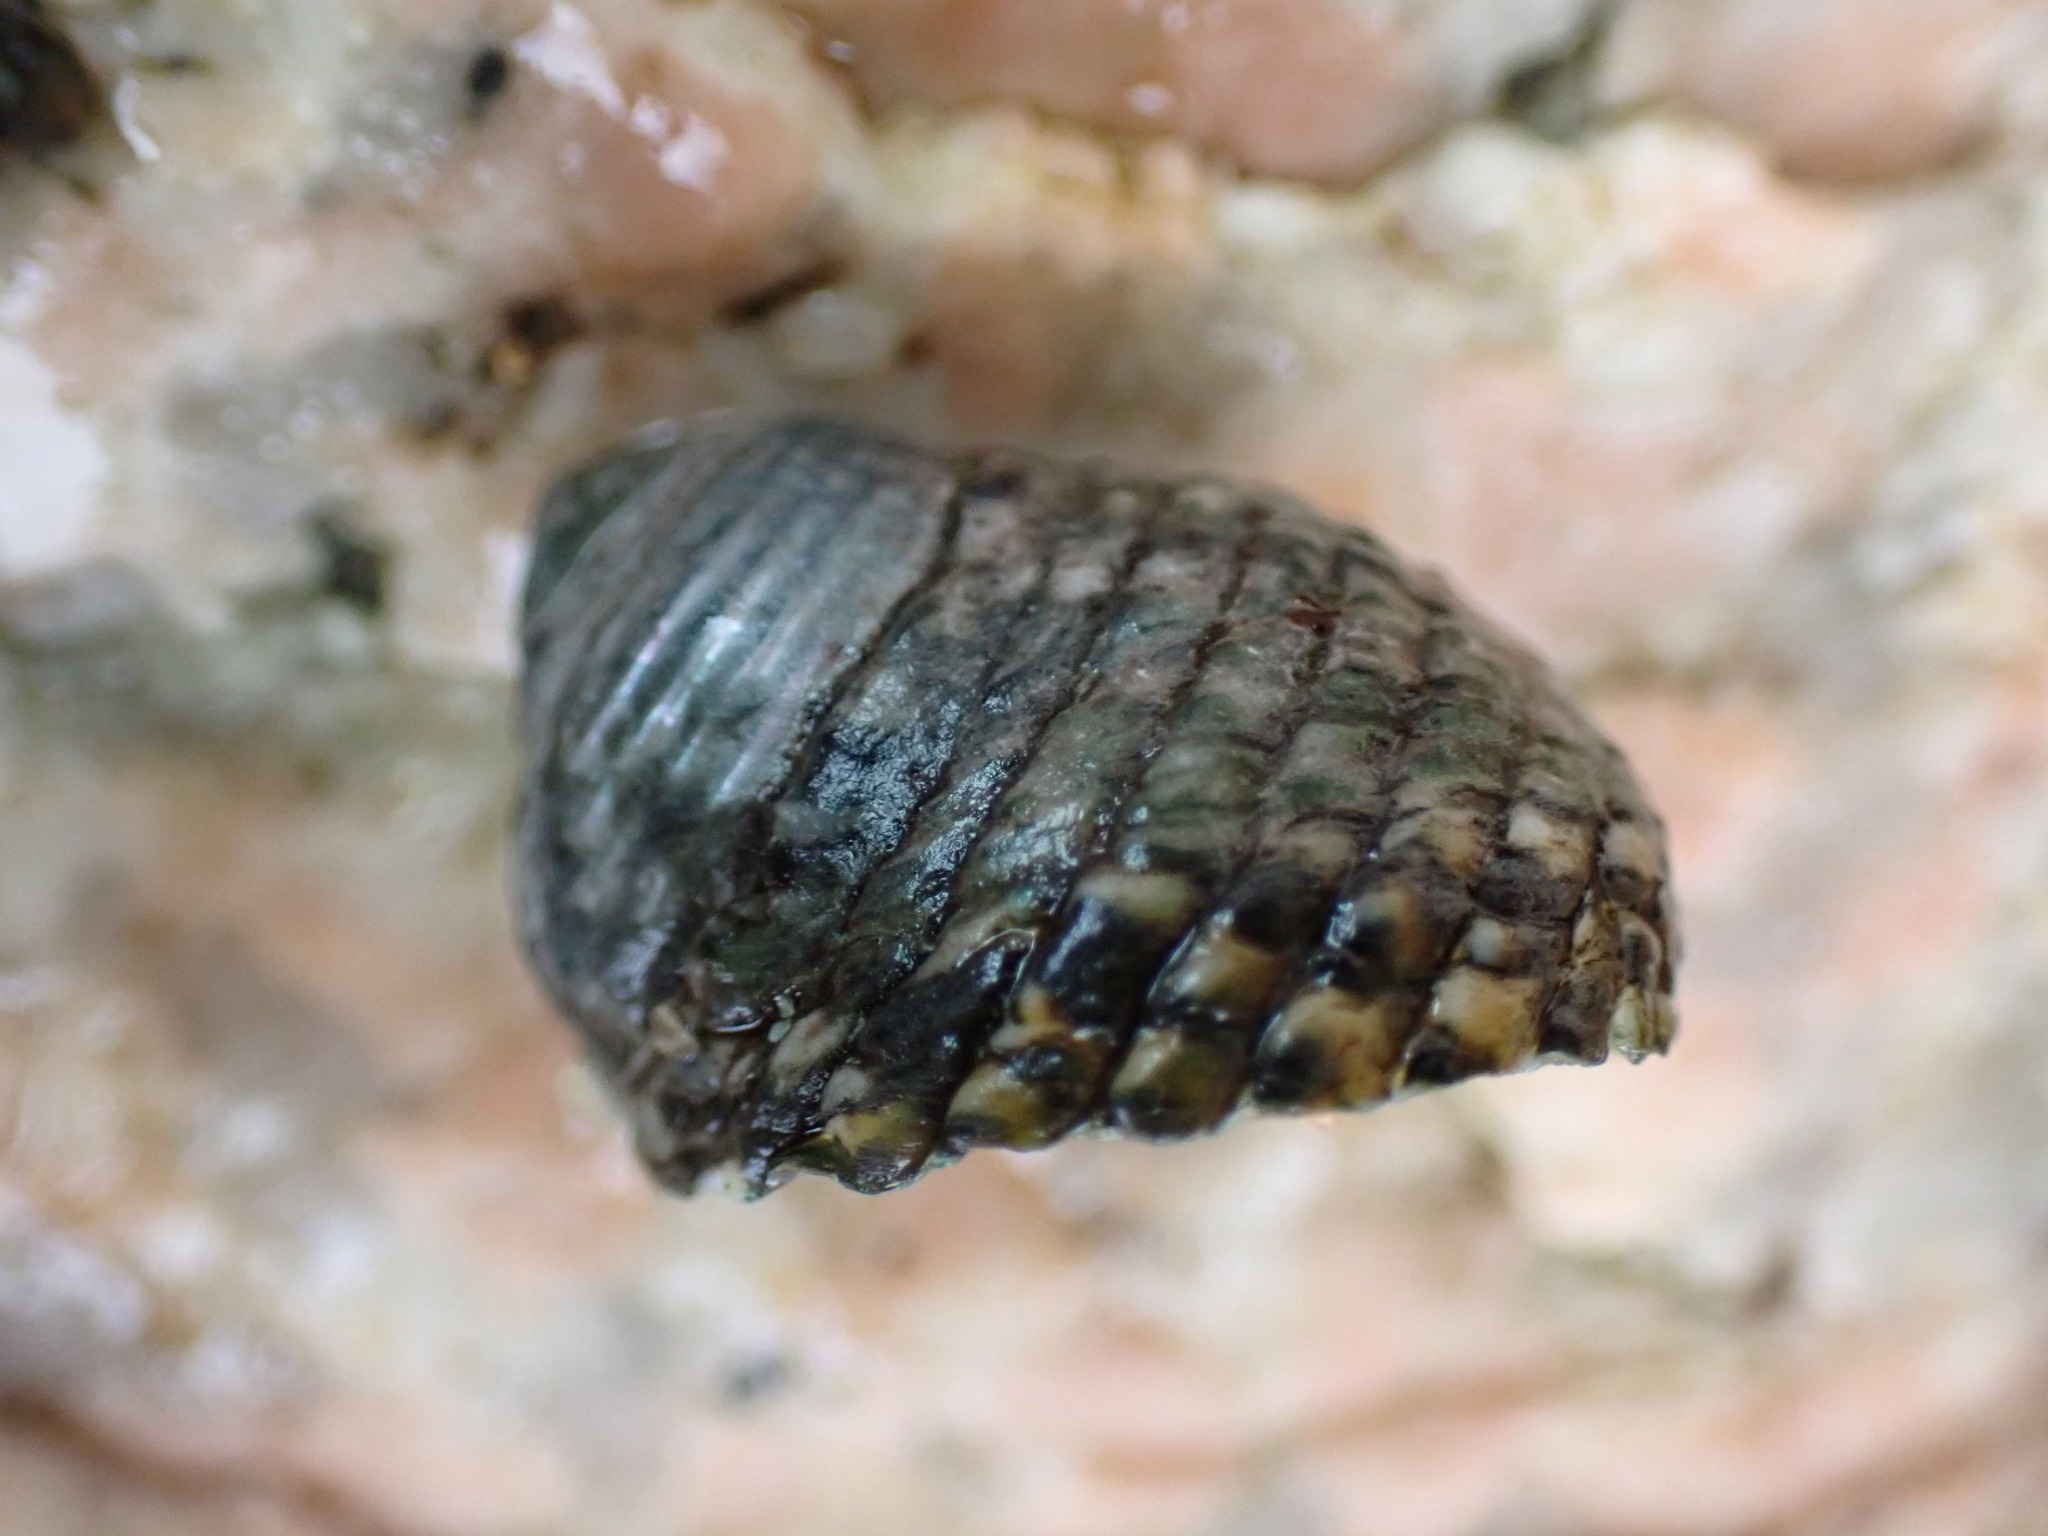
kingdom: Animalia
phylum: Mollusca
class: Gastropoda
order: Trochida
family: Trochidae
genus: Monodonta
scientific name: Monodonta labio
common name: Labio
